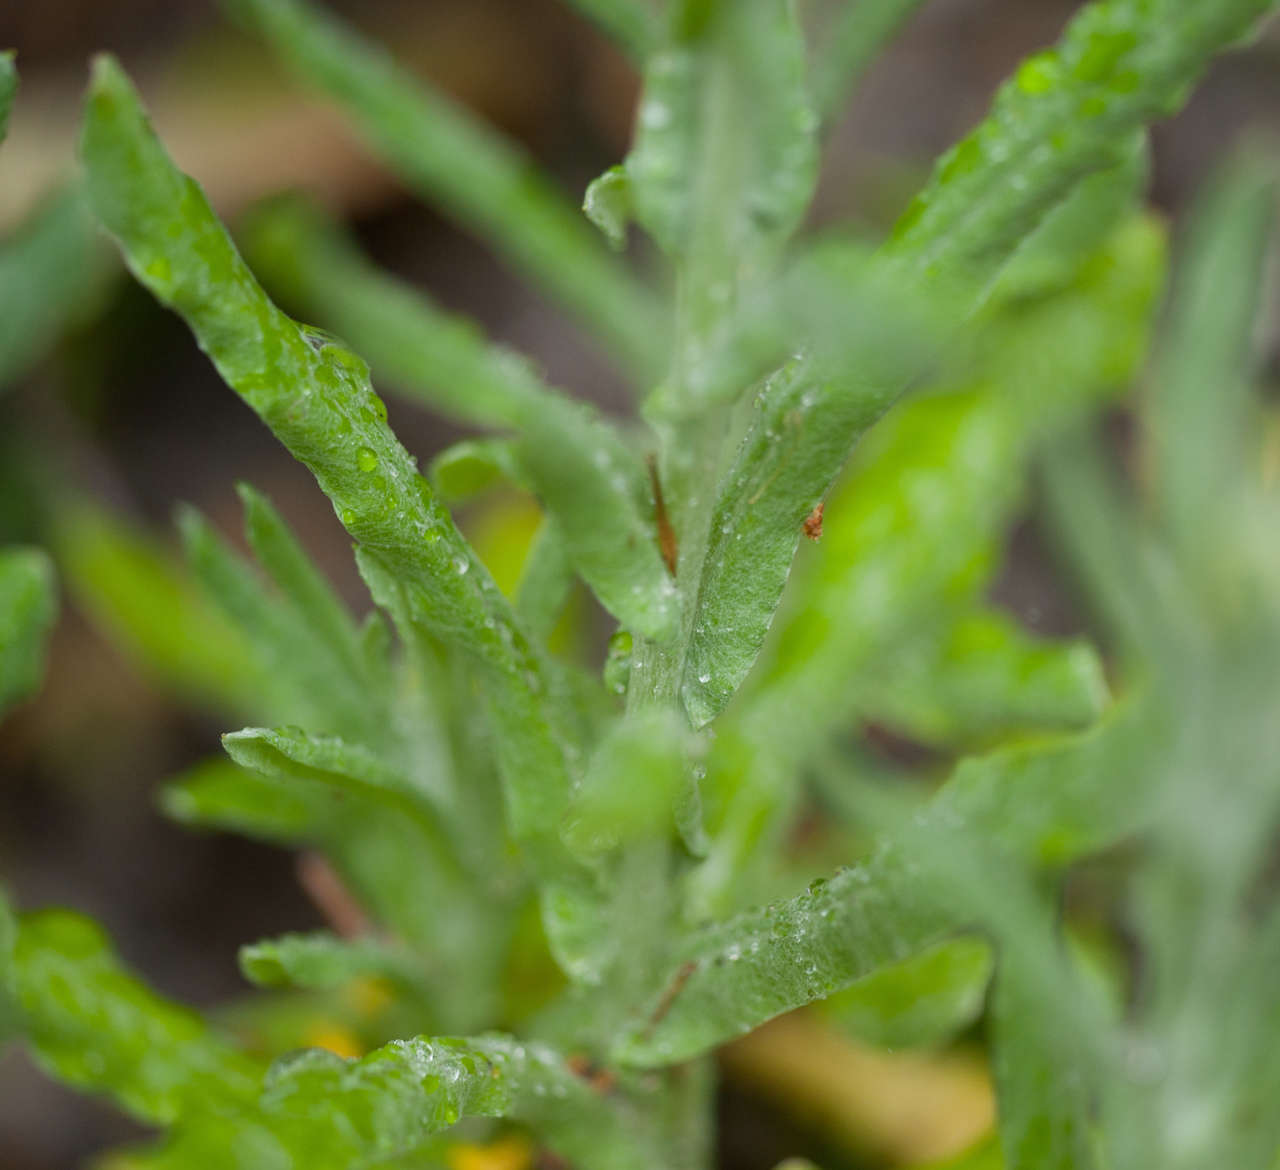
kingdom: Plantae
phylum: Tracheophyta
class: Magnoliopsida
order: Asterales
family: Asteraceae
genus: Helichrysum
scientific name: Helichrysum luteoalbum
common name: Daisy
